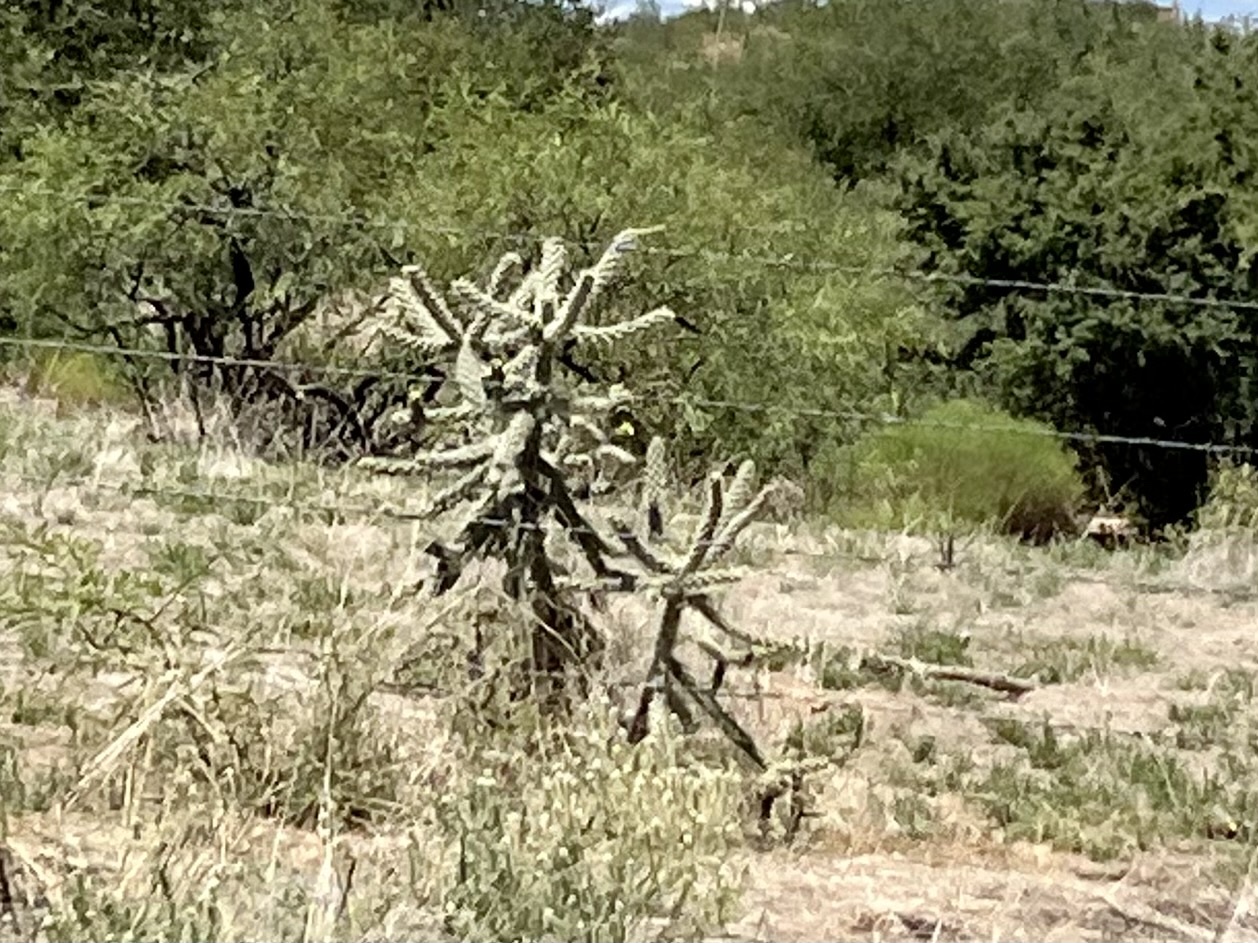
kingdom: Plantae
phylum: Tracheophyta
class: Magnoliopsida
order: Caryophyllales
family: Cactaceae
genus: Cylindropuntia
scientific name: Cylindropuntia imbricata
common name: Candelabrum cactus
